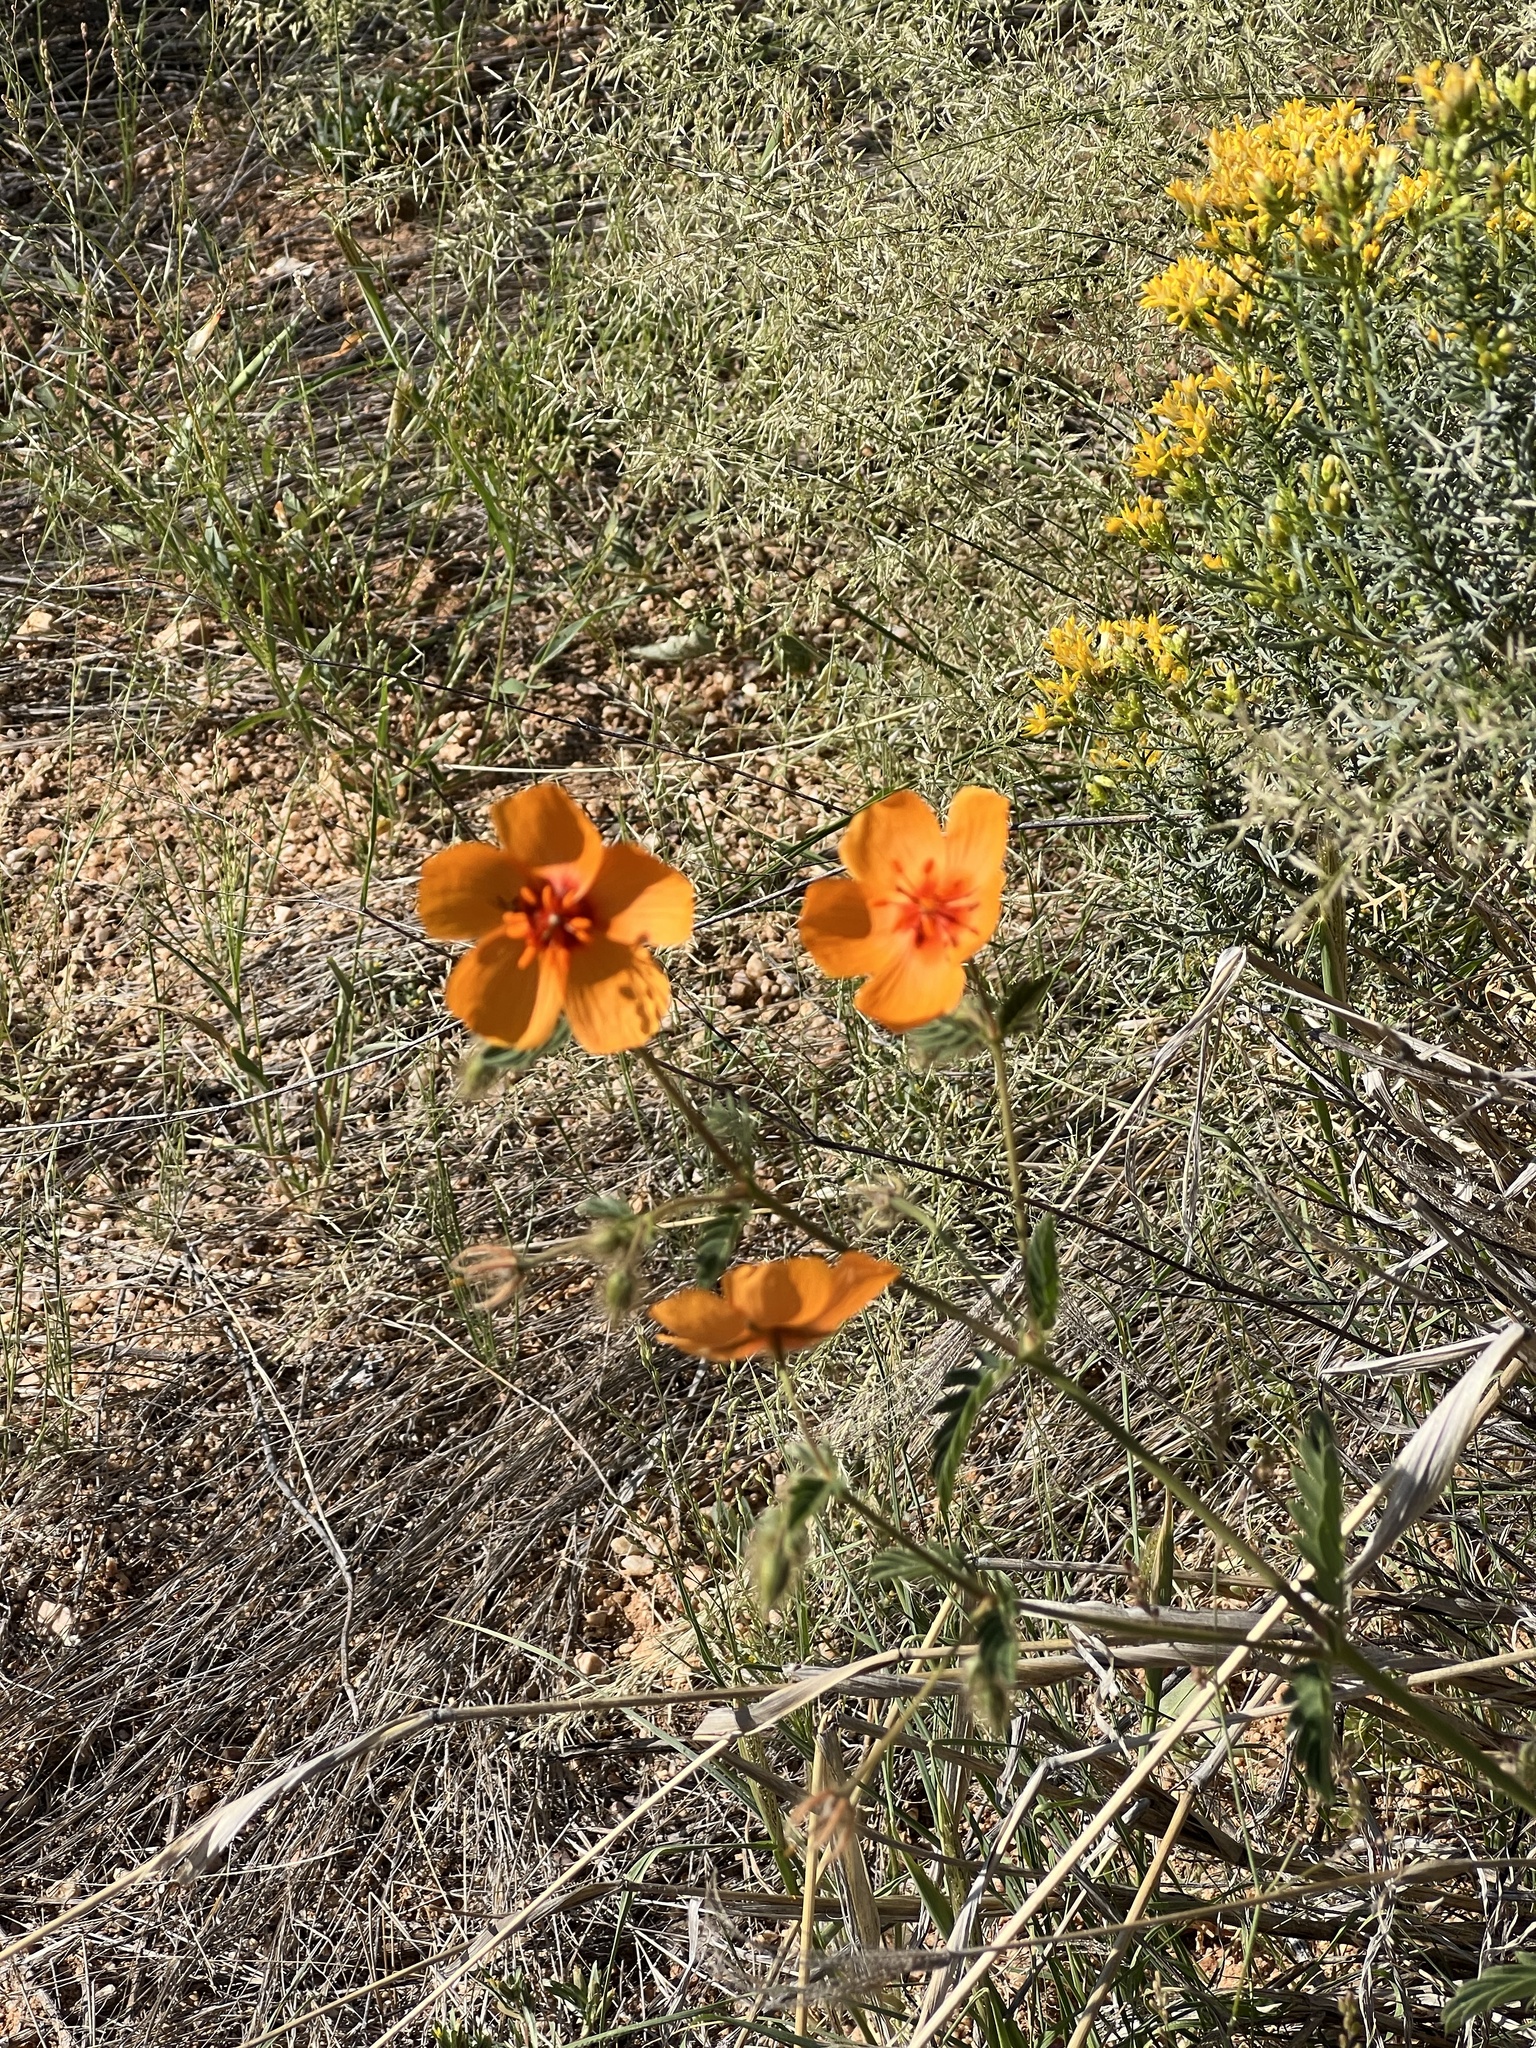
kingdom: Plantae
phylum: Tracheophyta
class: Magnoliopsida
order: Zygophyllales
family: Zygophyllaceae
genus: Kallstroemia
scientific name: Kallstroemia grandiflora
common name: Arizona-poppy
